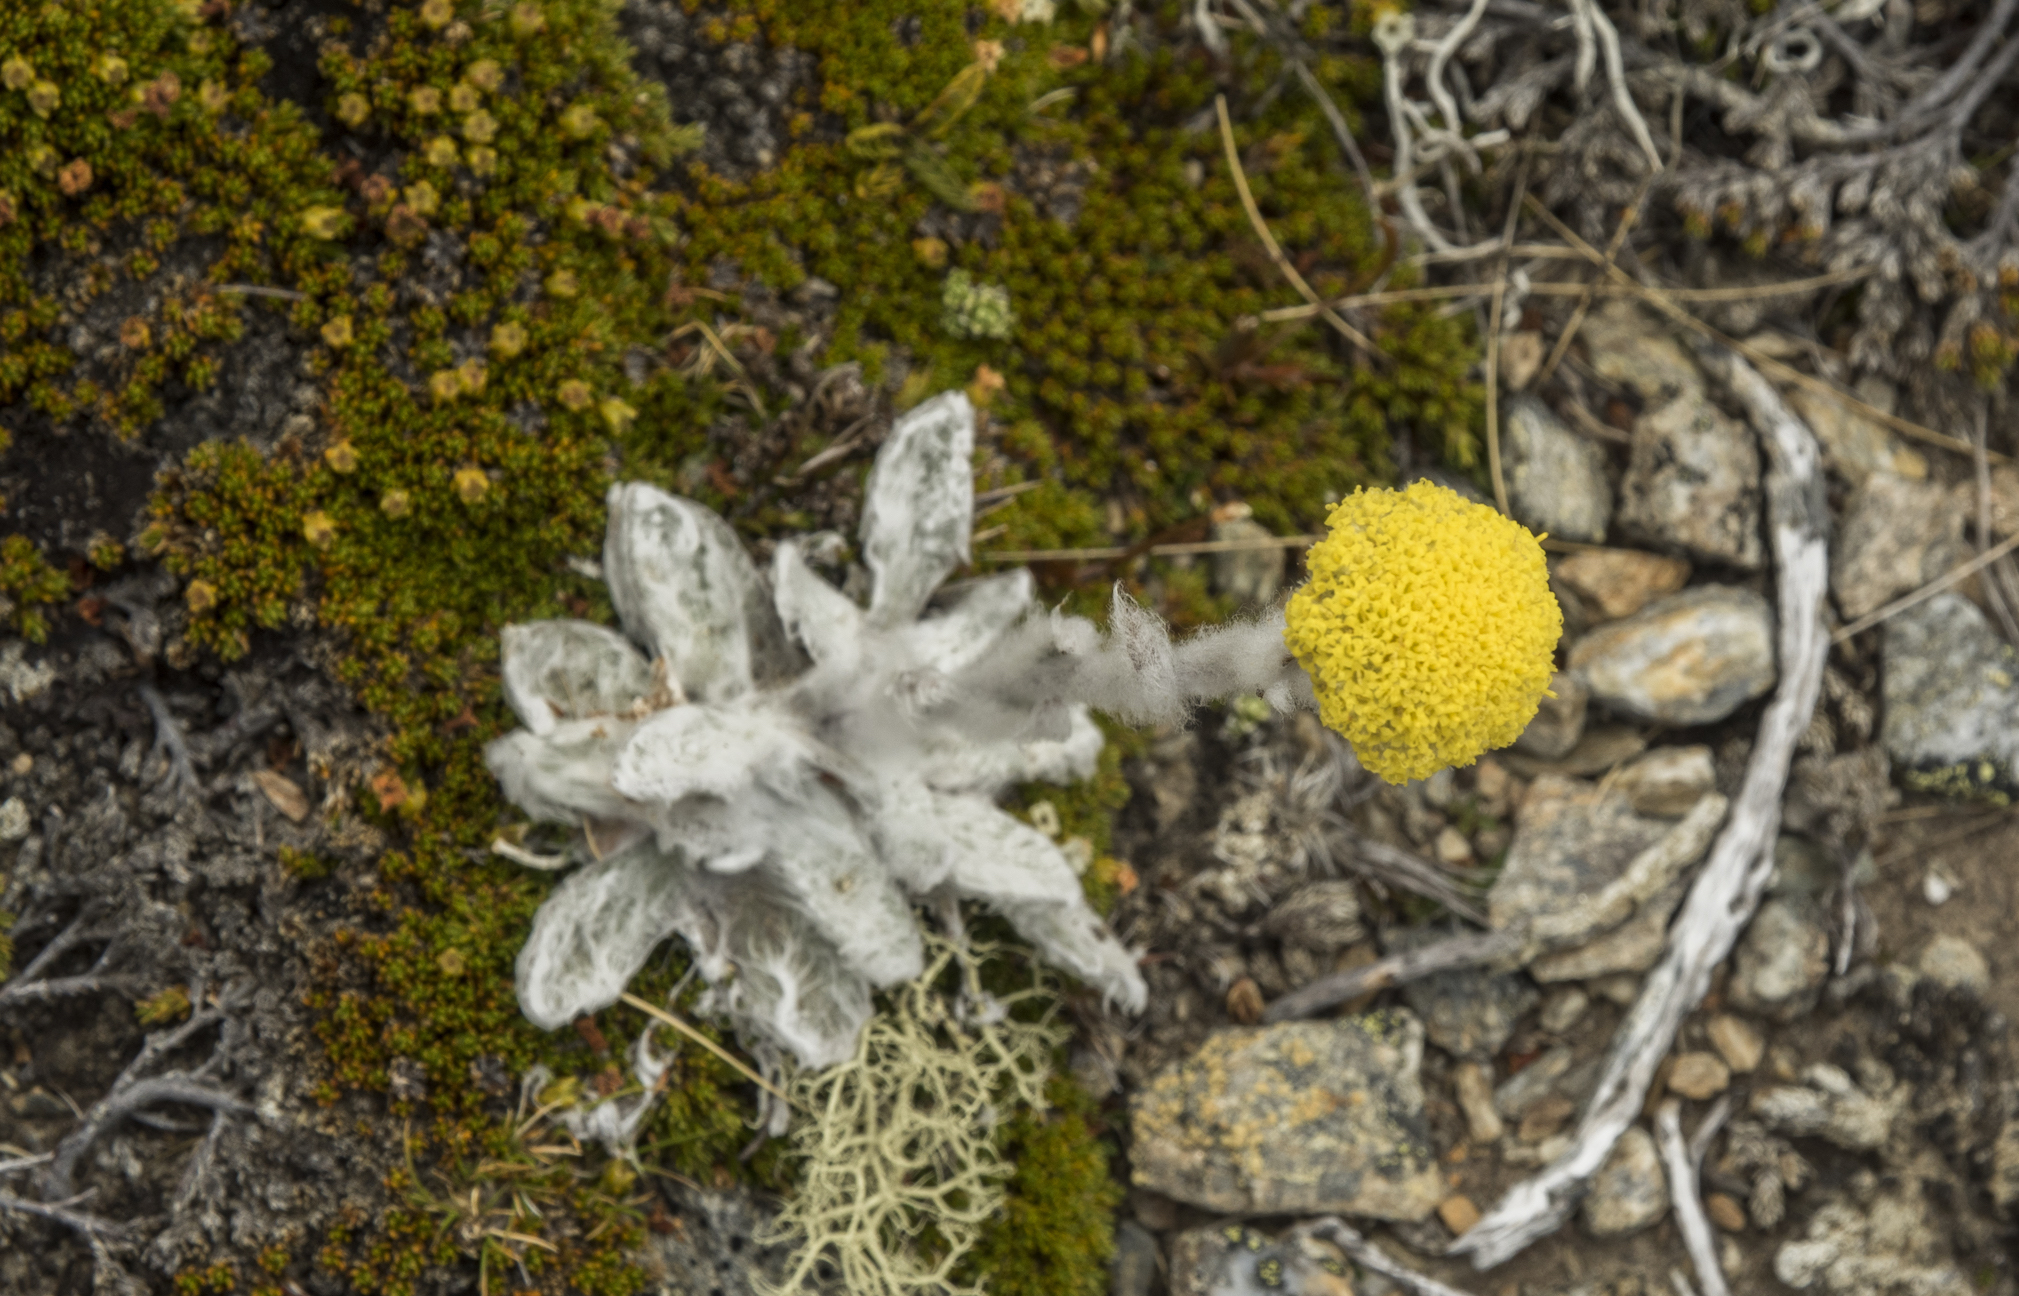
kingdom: Plantae
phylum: Tracheophyta
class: Magnoliopsida
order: Asterales
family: Asteraceae
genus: Craspedia
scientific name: Craspedia incana
